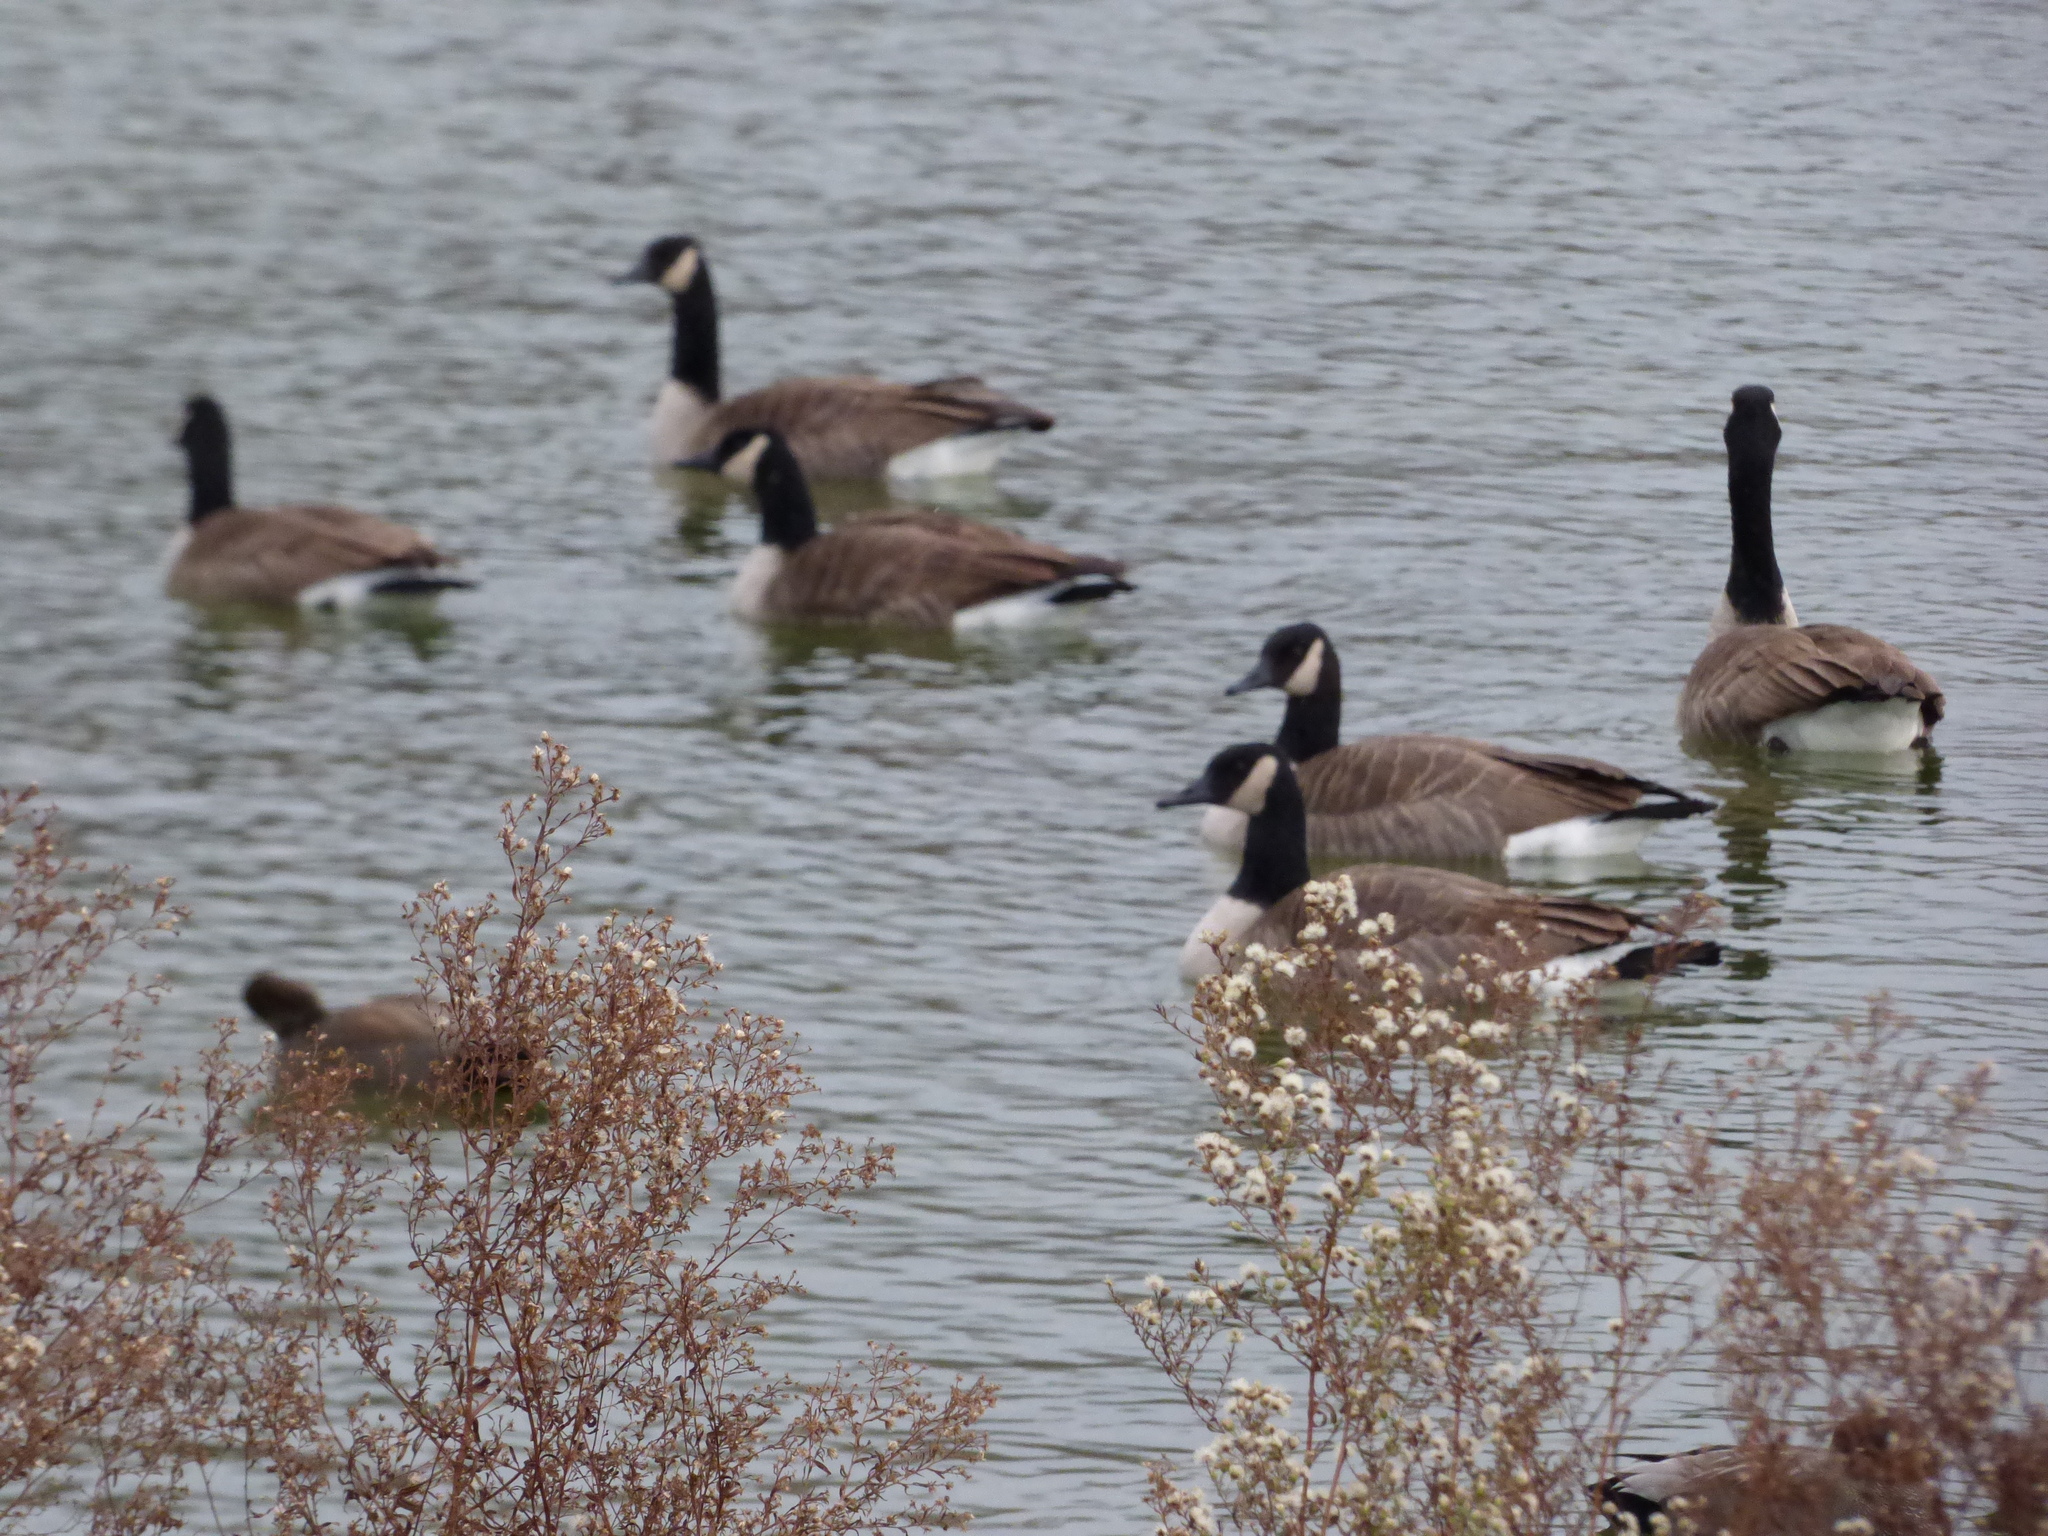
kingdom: Animalia
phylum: Chordata
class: Aves
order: Anseriformes
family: Anatidae
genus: Branta
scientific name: Branta canadensis
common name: Canada goose
